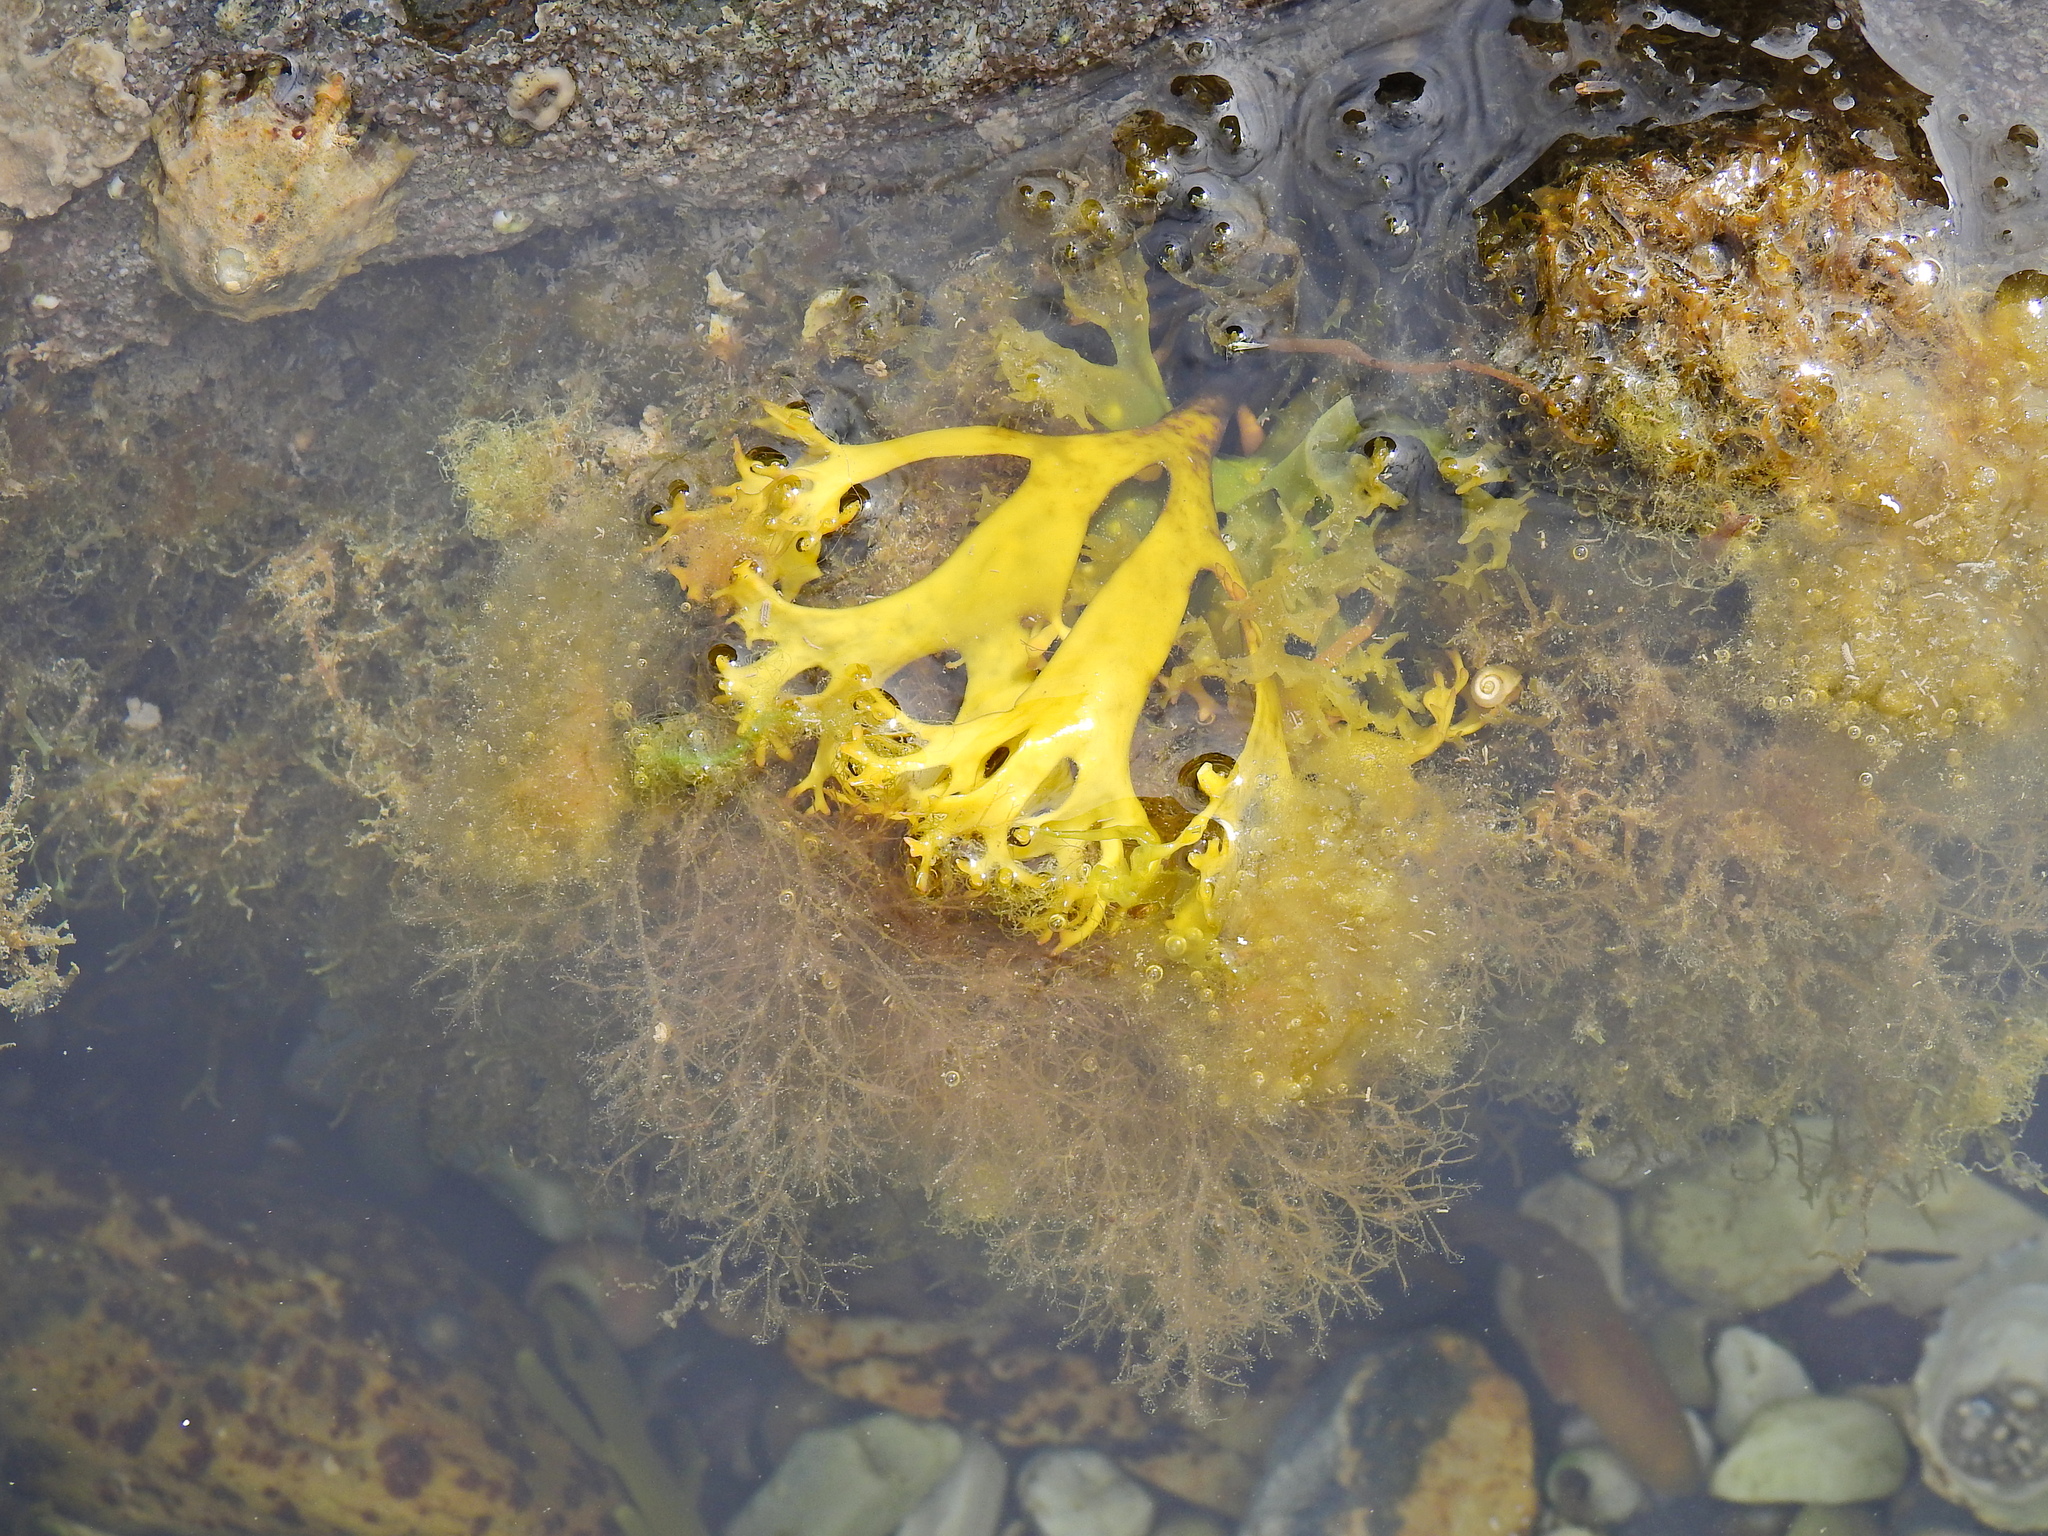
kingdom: Plantae
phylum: Rhodophyta
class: Florideophyceae
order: Gigartinales
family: Gigartinaceae
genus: Chondrus
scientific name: Chondrus crispus
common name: Carrageen
